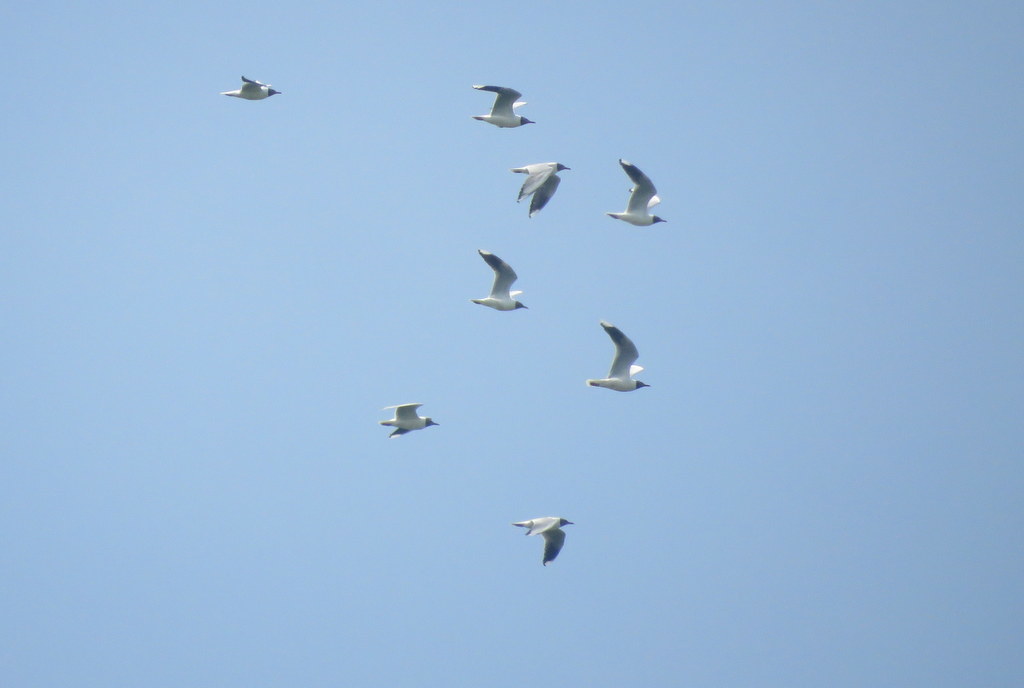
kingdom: Animalia
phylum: Chordata
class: Aves
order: Charadriiformes
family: Laridae
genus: Chroicocephalus
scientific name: Chroicocephalus maculipennis
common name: Brown-hooded gull
